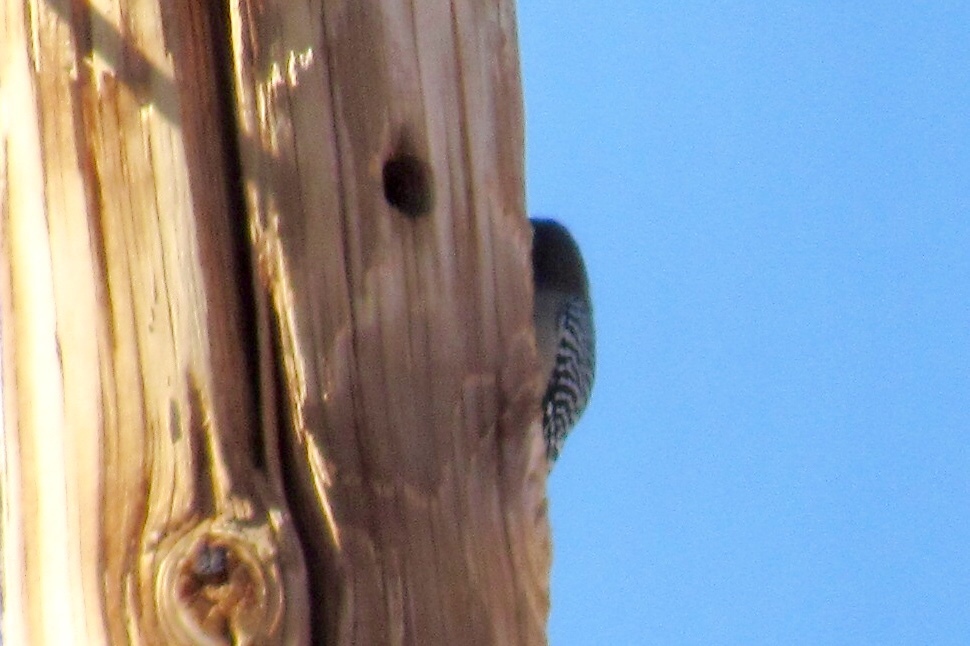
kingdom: Animalia
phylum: Chordata
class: Aves
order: Piciformes
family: Picidae
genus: Melanerpes
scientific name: Melanerpes uropygialis
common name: Gila woodpecker
